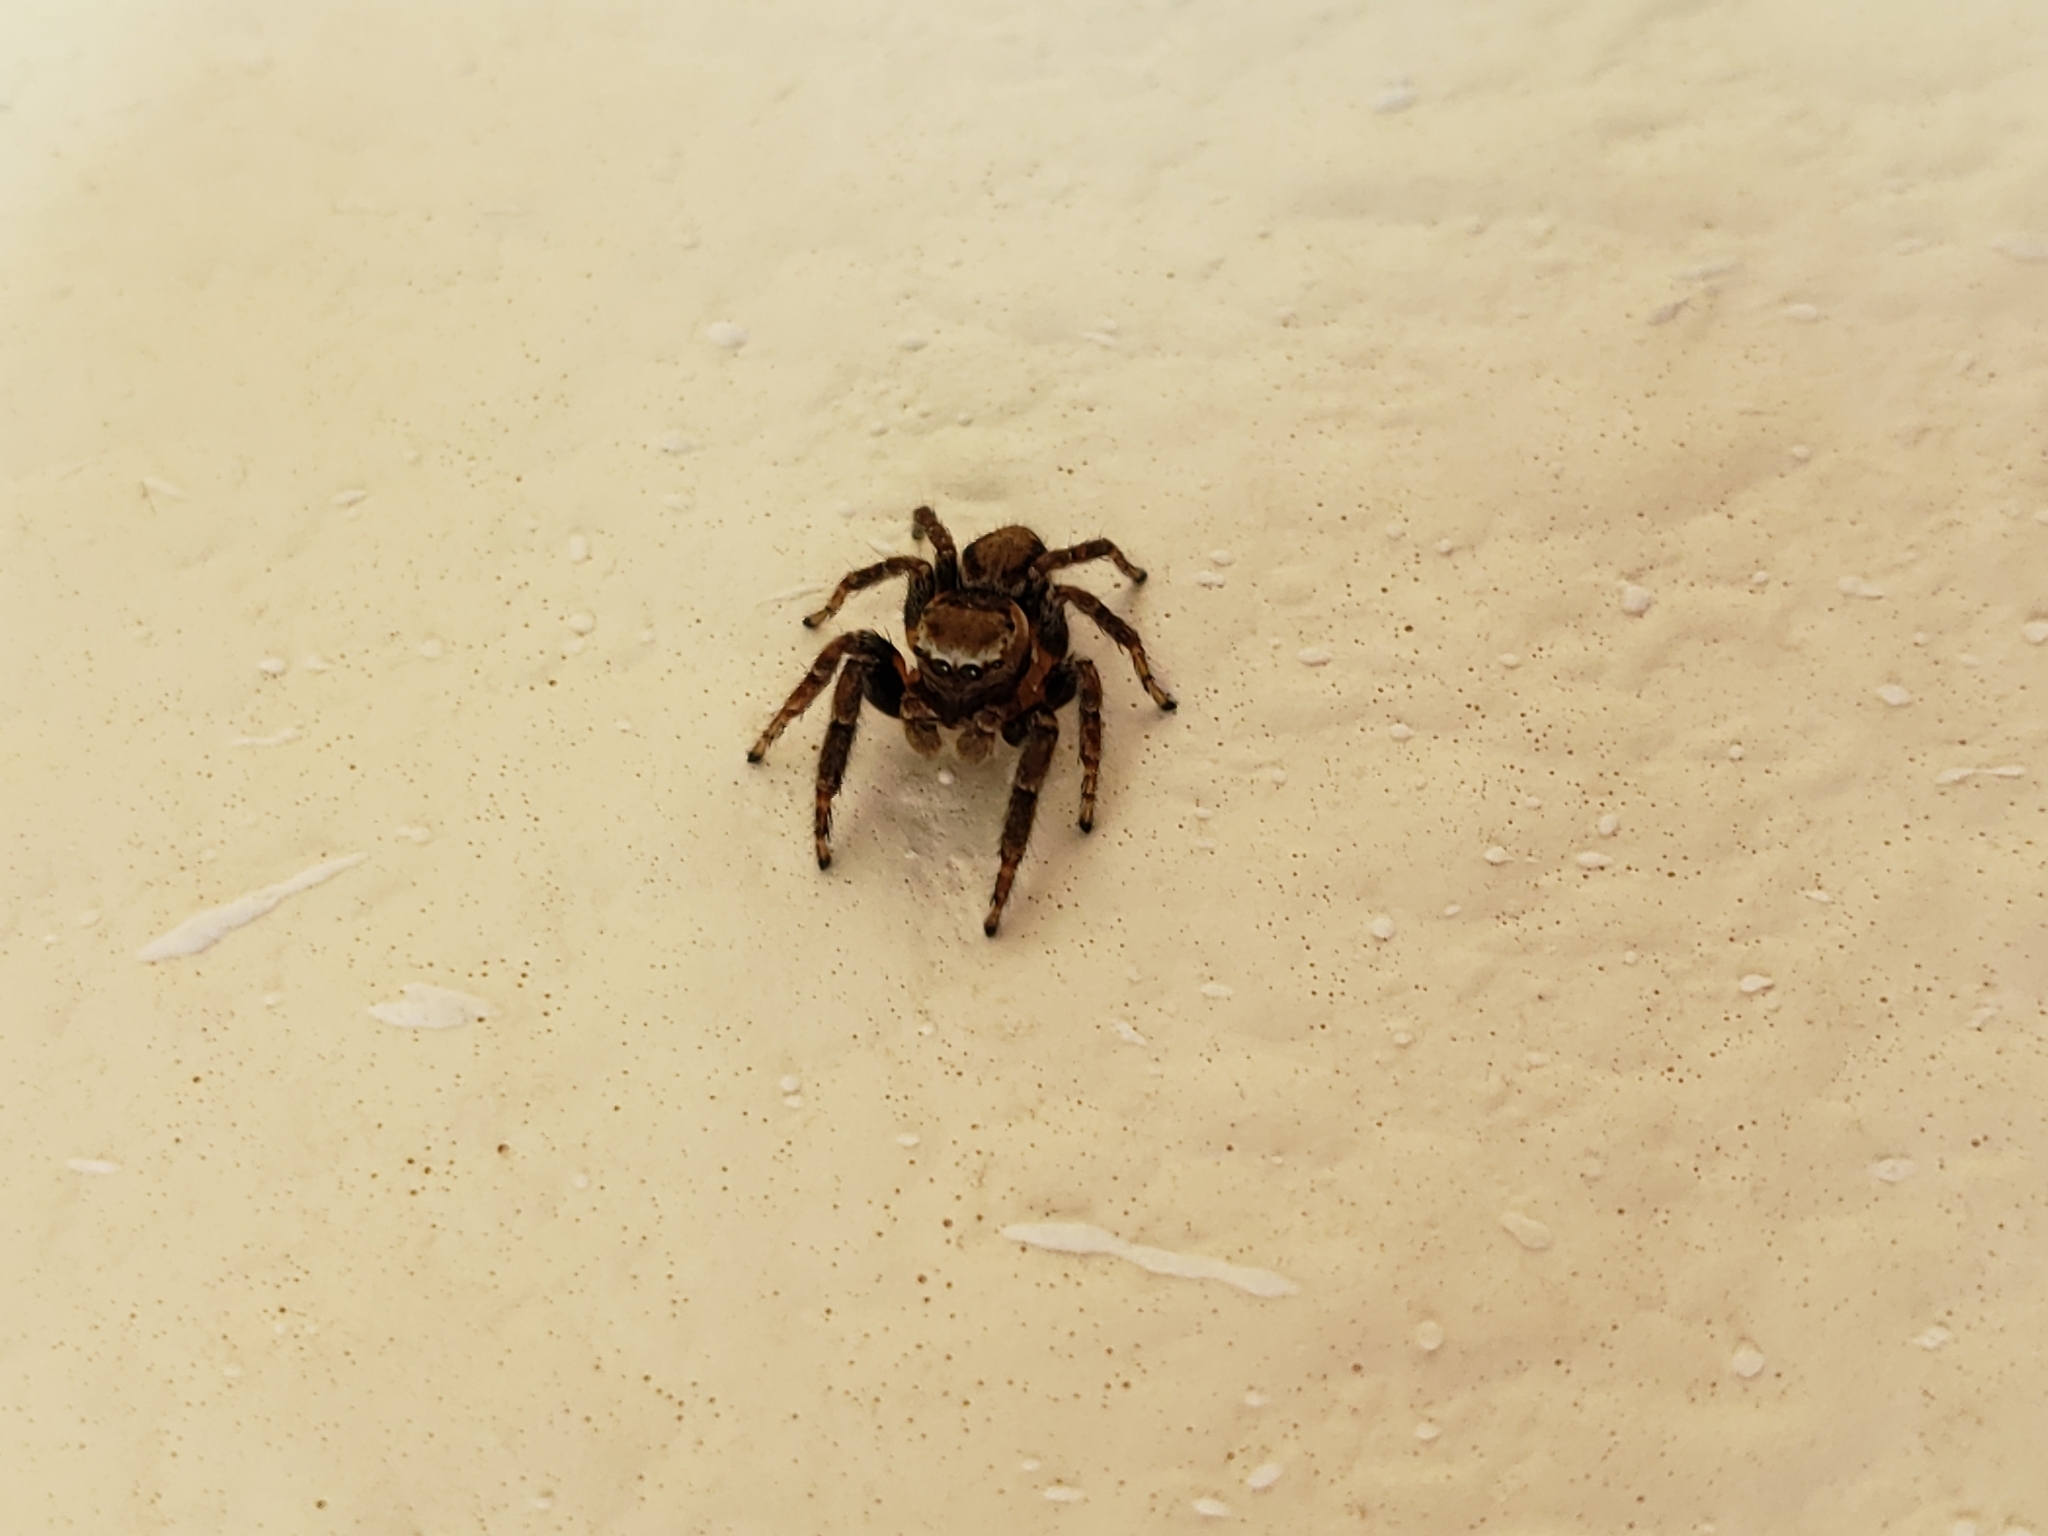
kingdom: Animalia
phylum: Arthropoda
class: Arachnida
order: Araneae
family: Salticidae
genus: Evarcha
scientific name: Evarcha proszynskii
